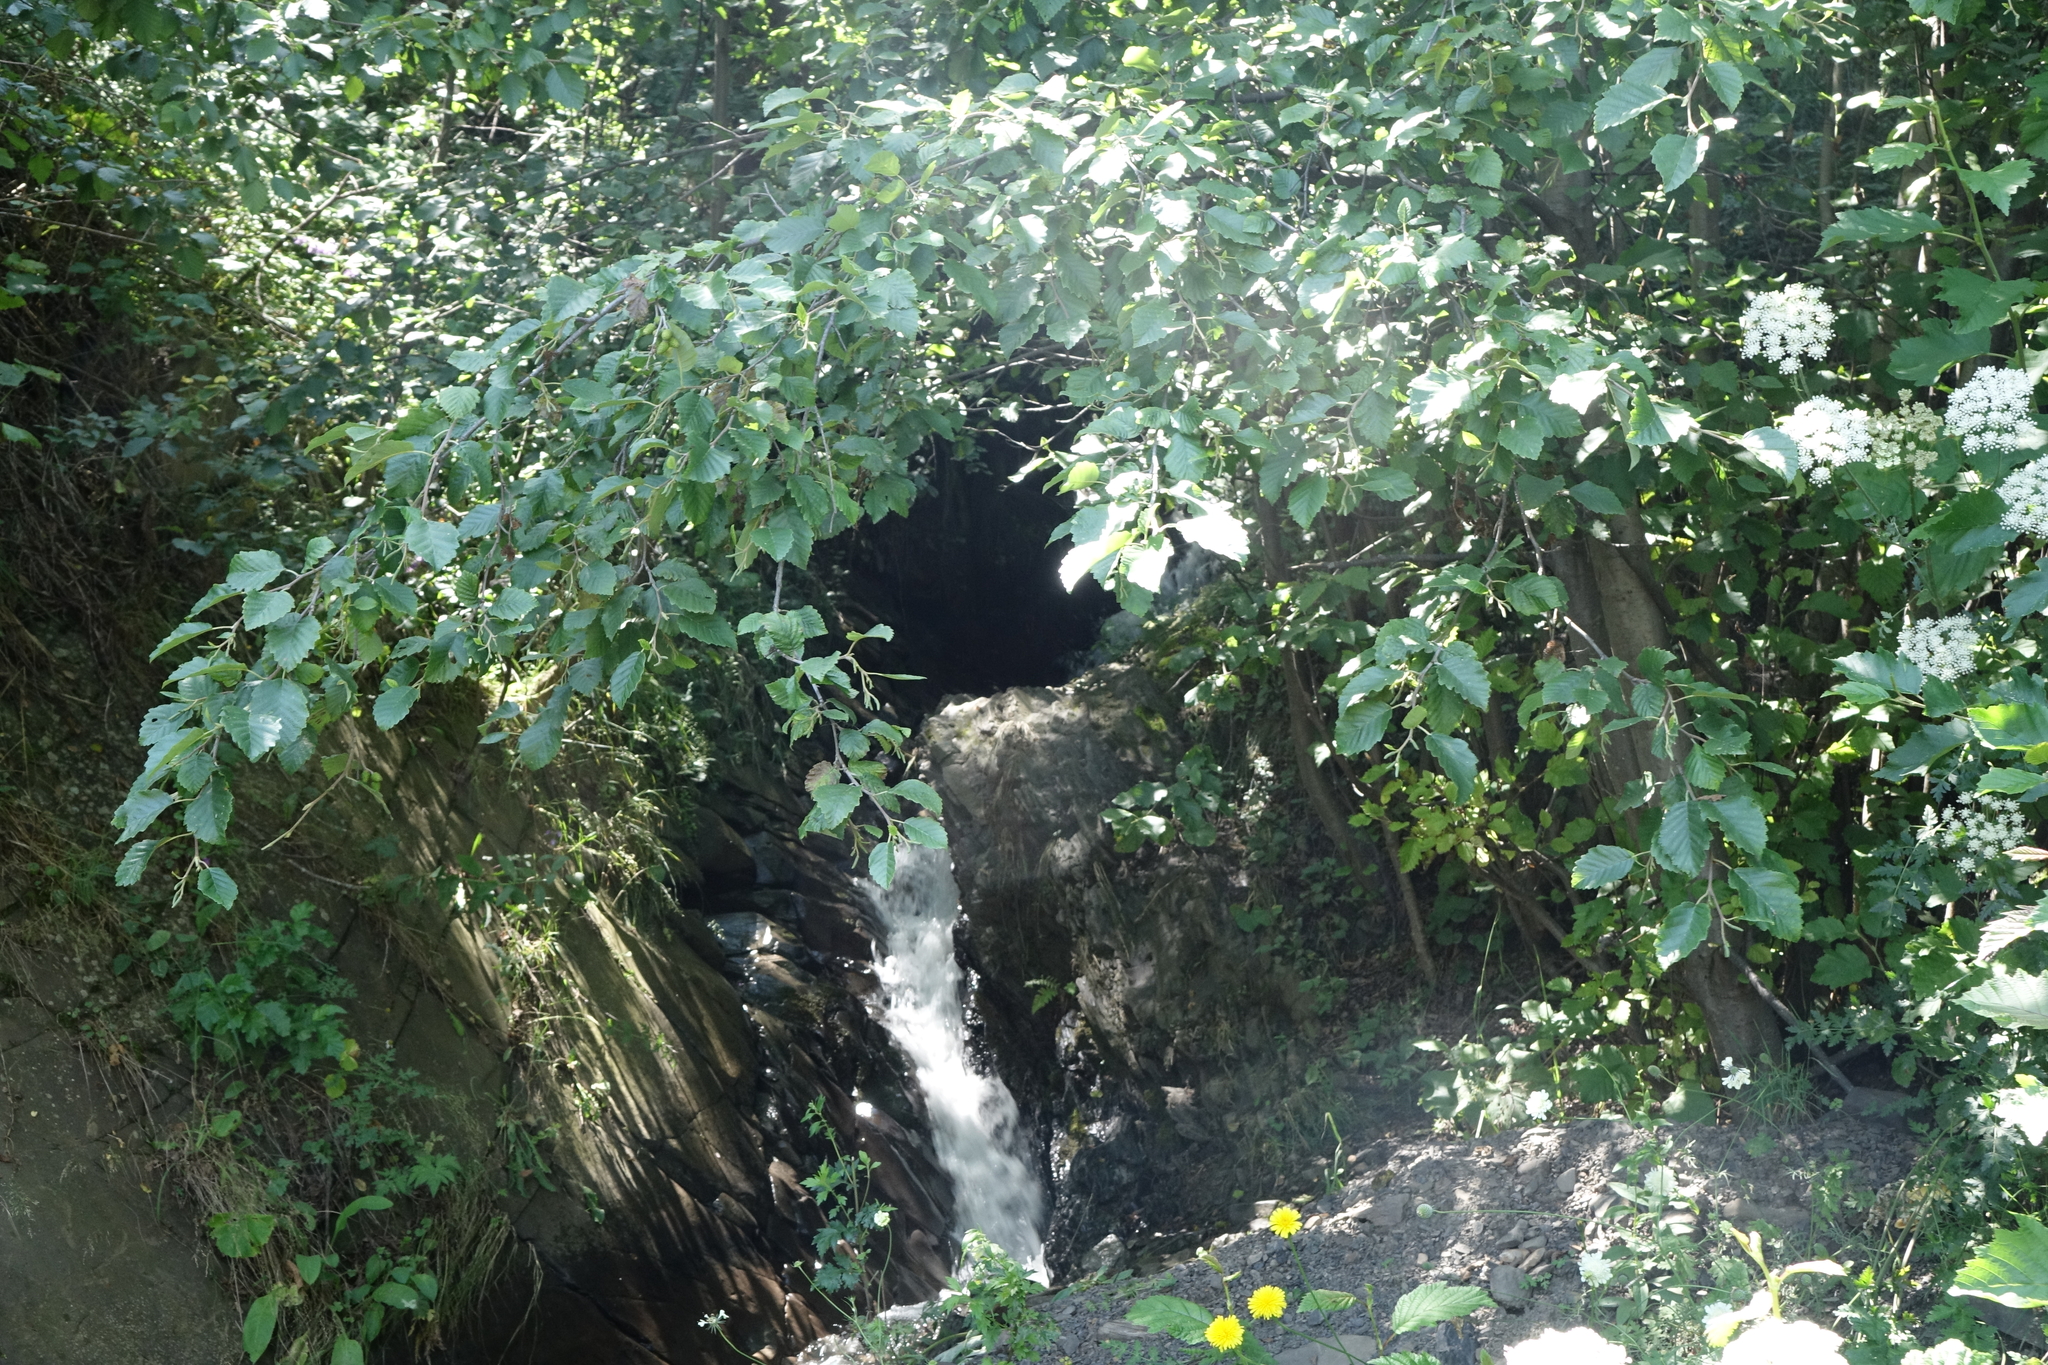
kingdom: Plantae
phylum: Tracheophyta
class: Magnoliopsida
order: Fagales
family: Betulaceae
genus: Alnus
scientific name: Alnus incana
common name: Grey alder
